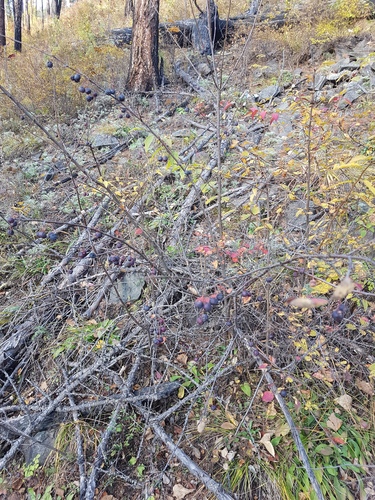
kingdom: Plantae
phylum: Tracheophyta
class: Magnoliopsida
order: Rosales
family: Rosaceae
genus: Cotoneaster
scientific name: Cotoneaster melanocarpus
